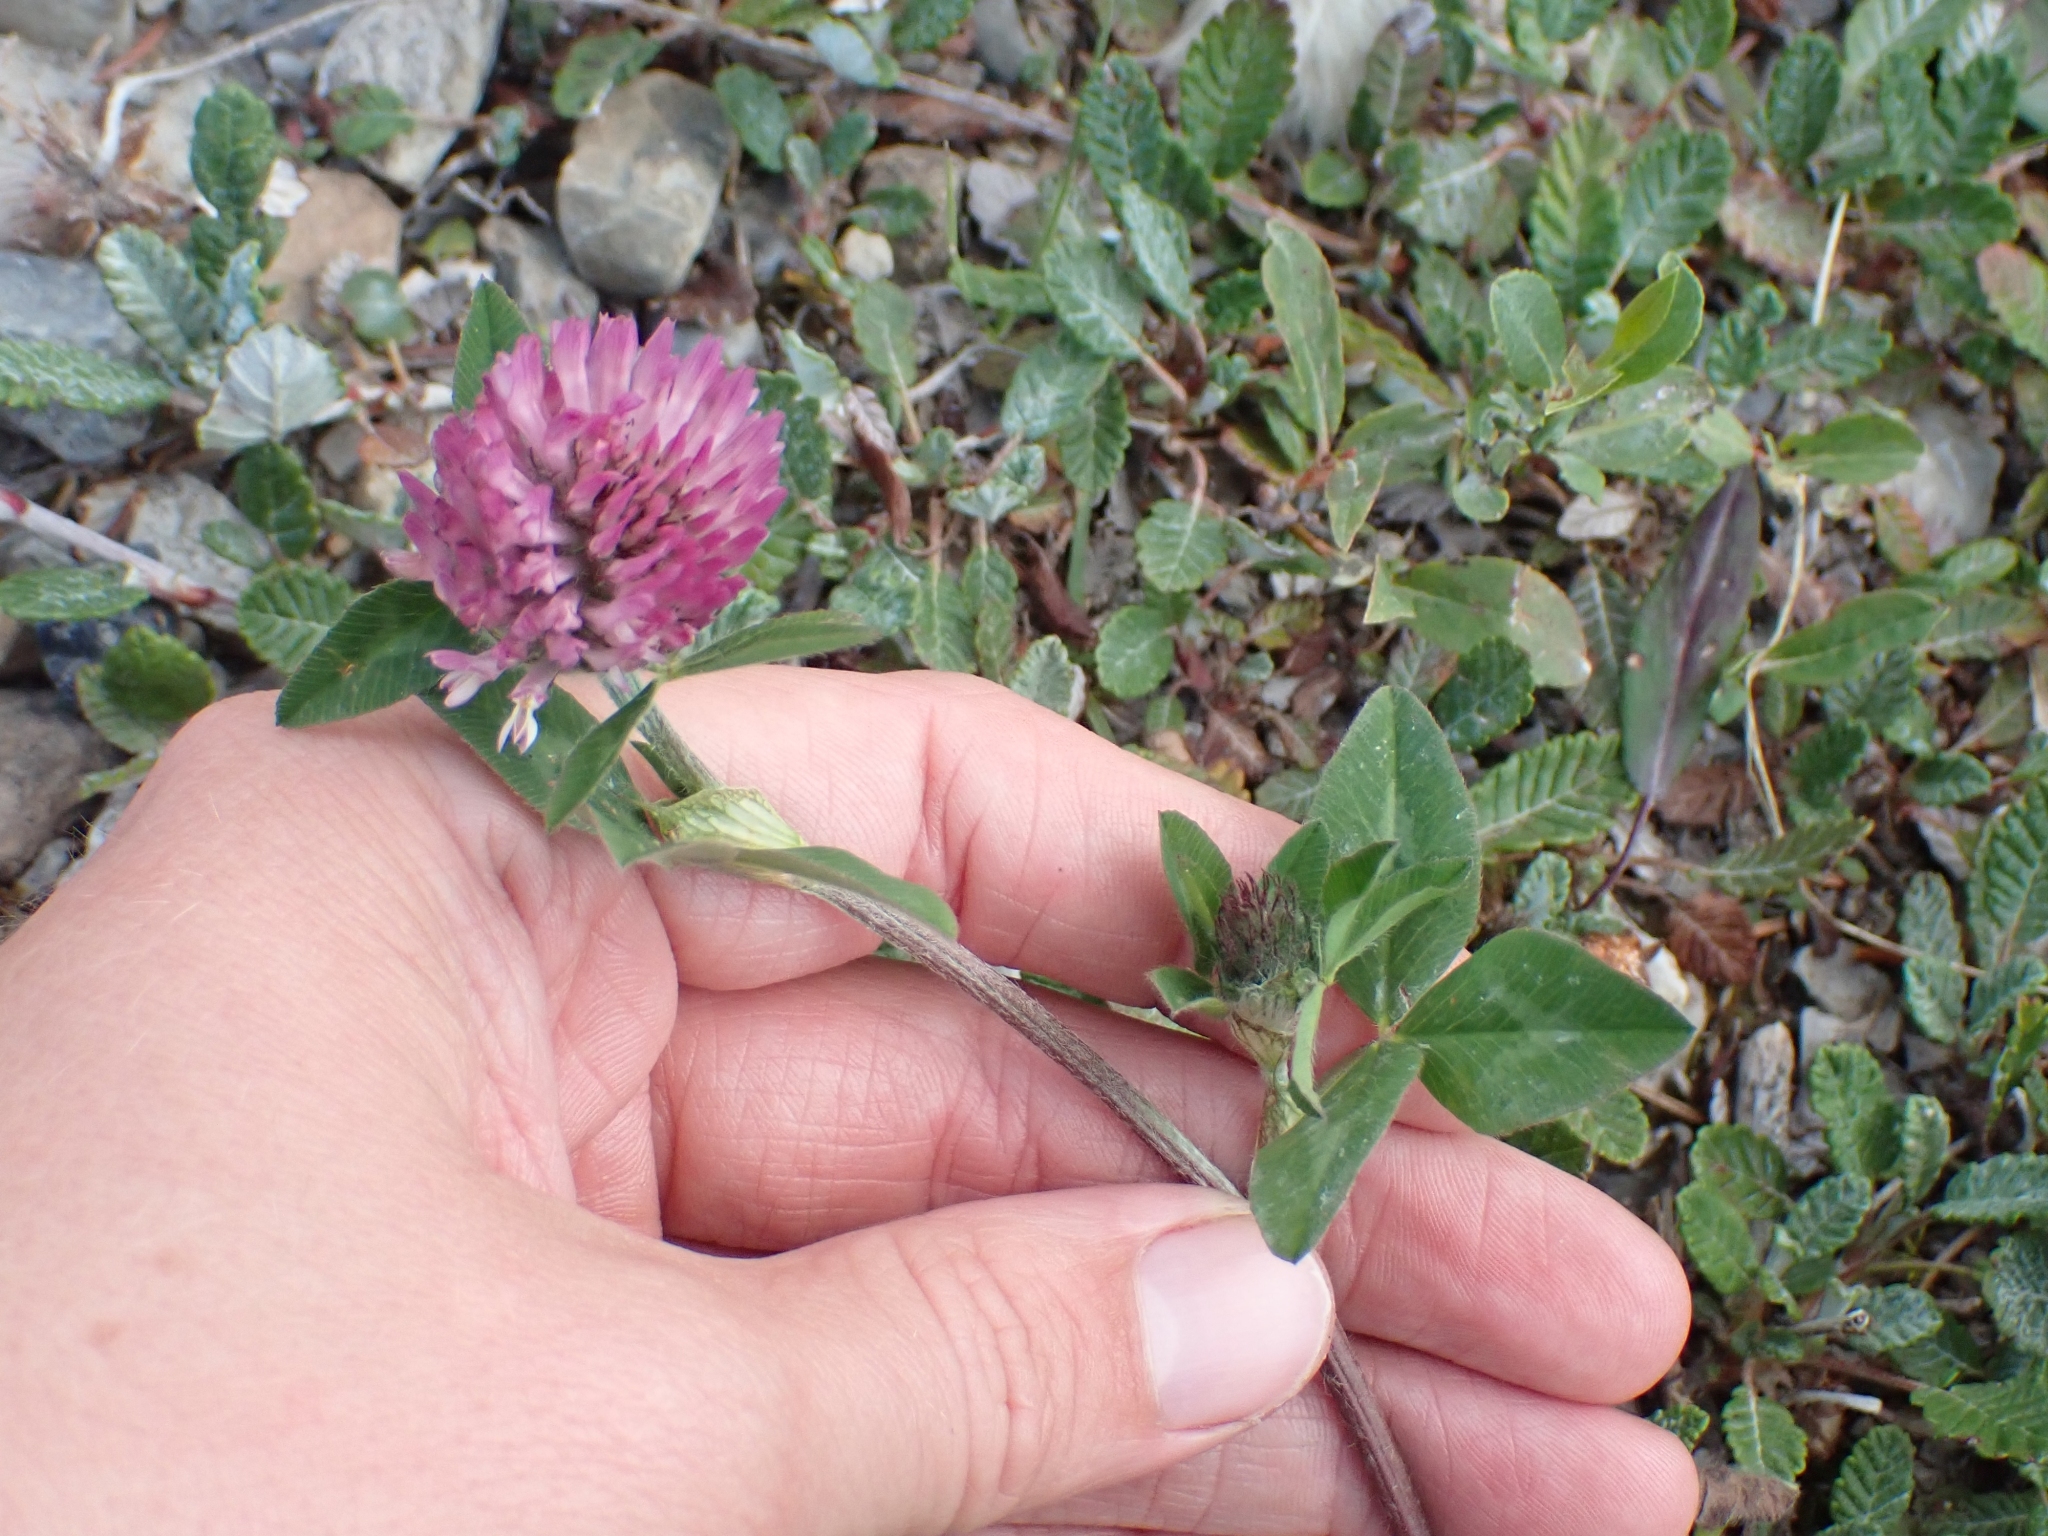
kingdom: Plantae
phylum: Tracheophyta
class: Magnoliopsida
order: Fabales
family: Fabaceae
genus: Trifolium
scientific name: Trifolium pratense
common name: Red clover
